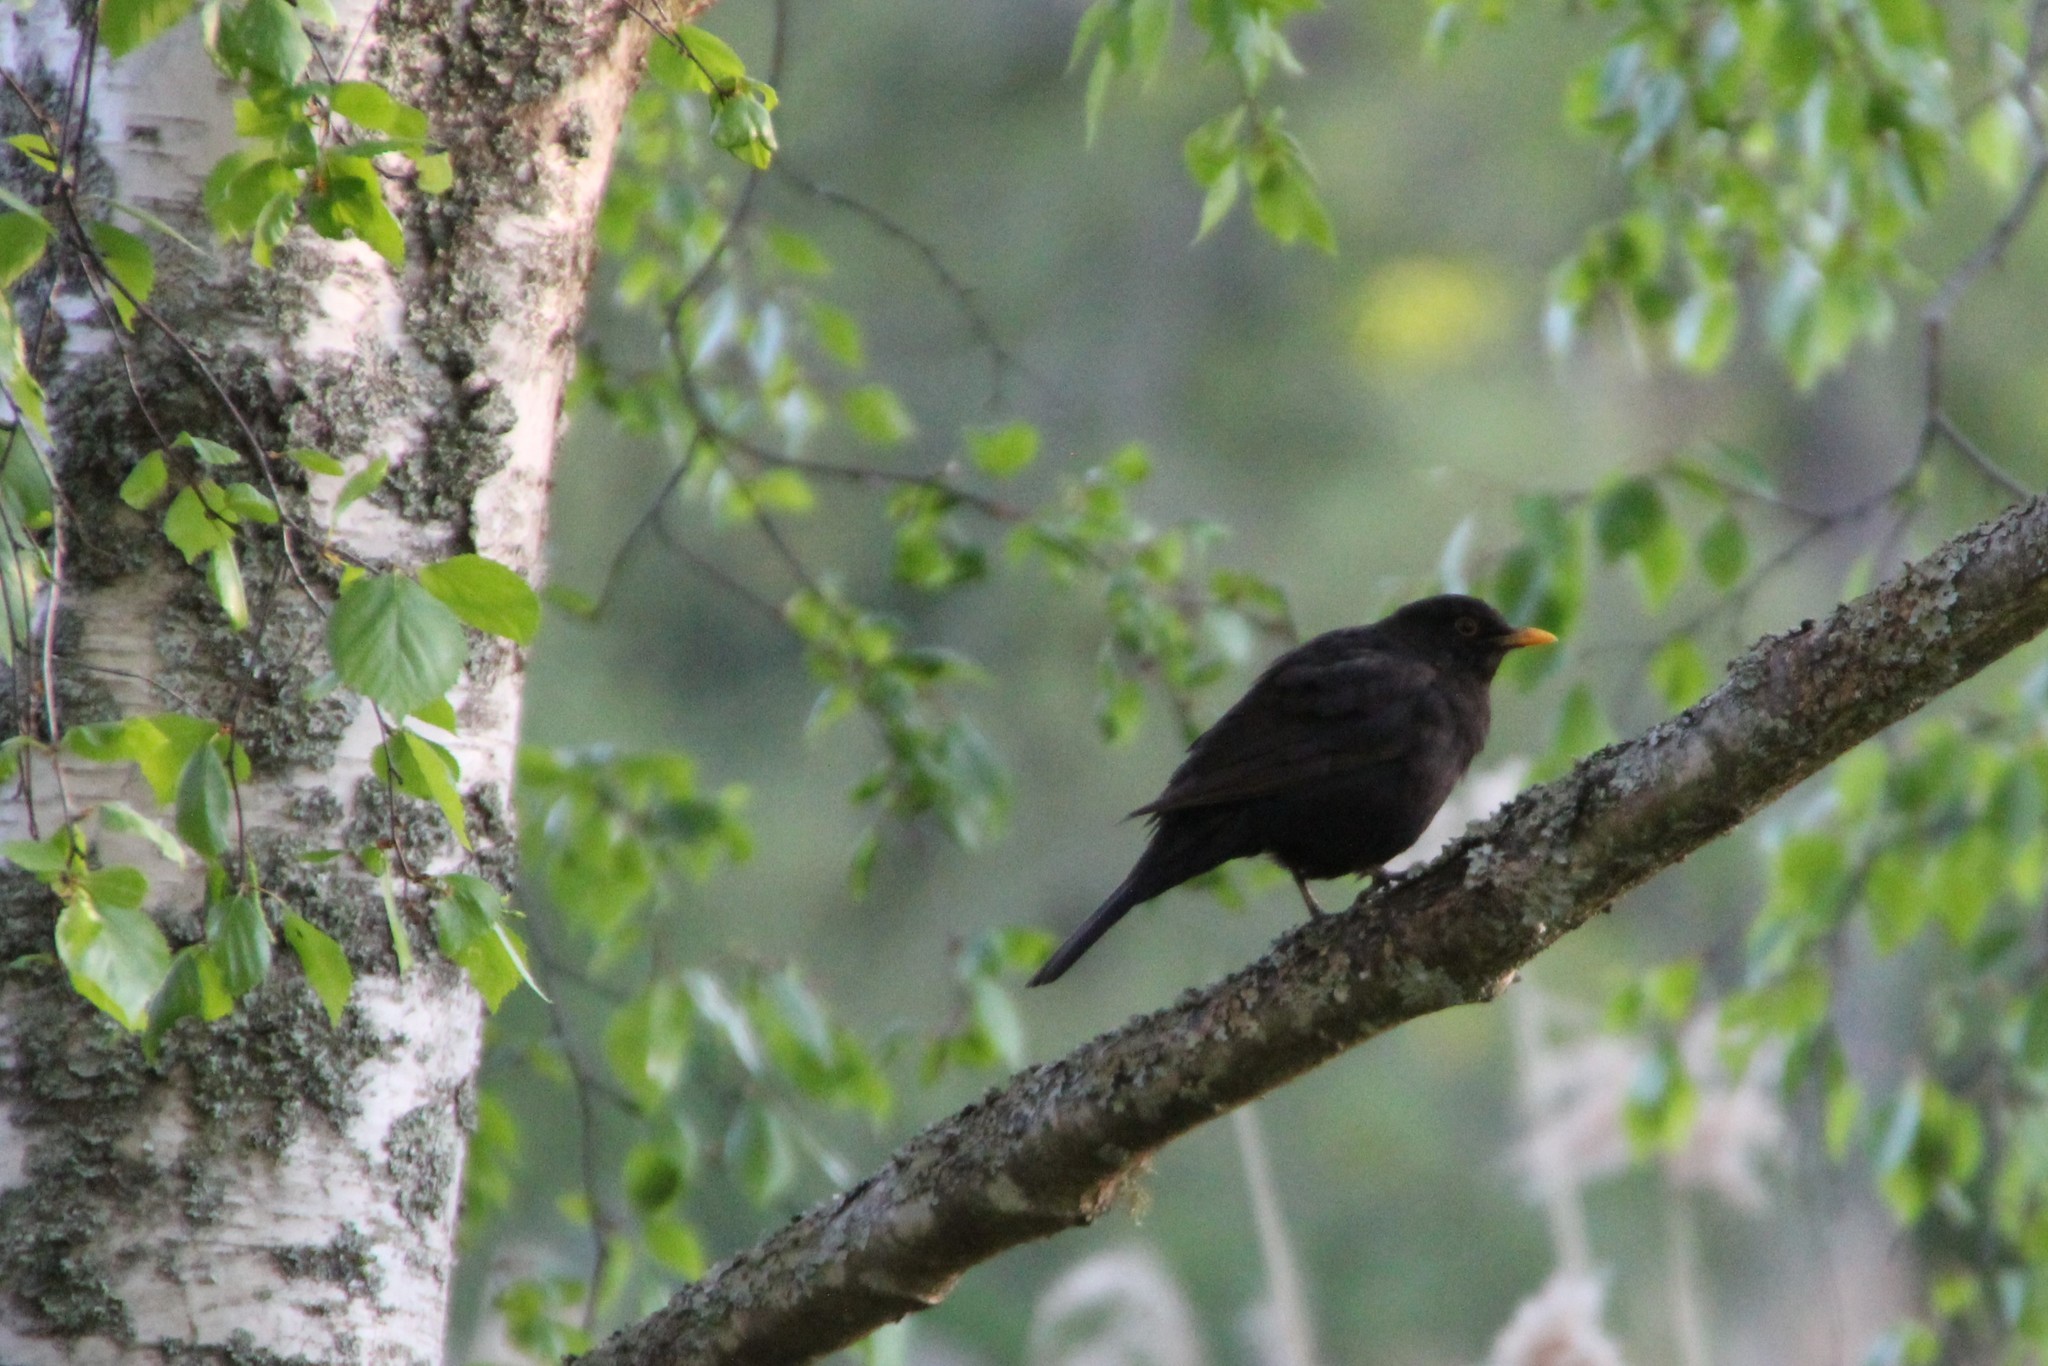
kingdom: Animalia
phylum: Chordata
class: Aves
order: Passeriformes
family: Turdidae
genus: Turdus
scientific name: Turdus merula
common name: Common blackbird
